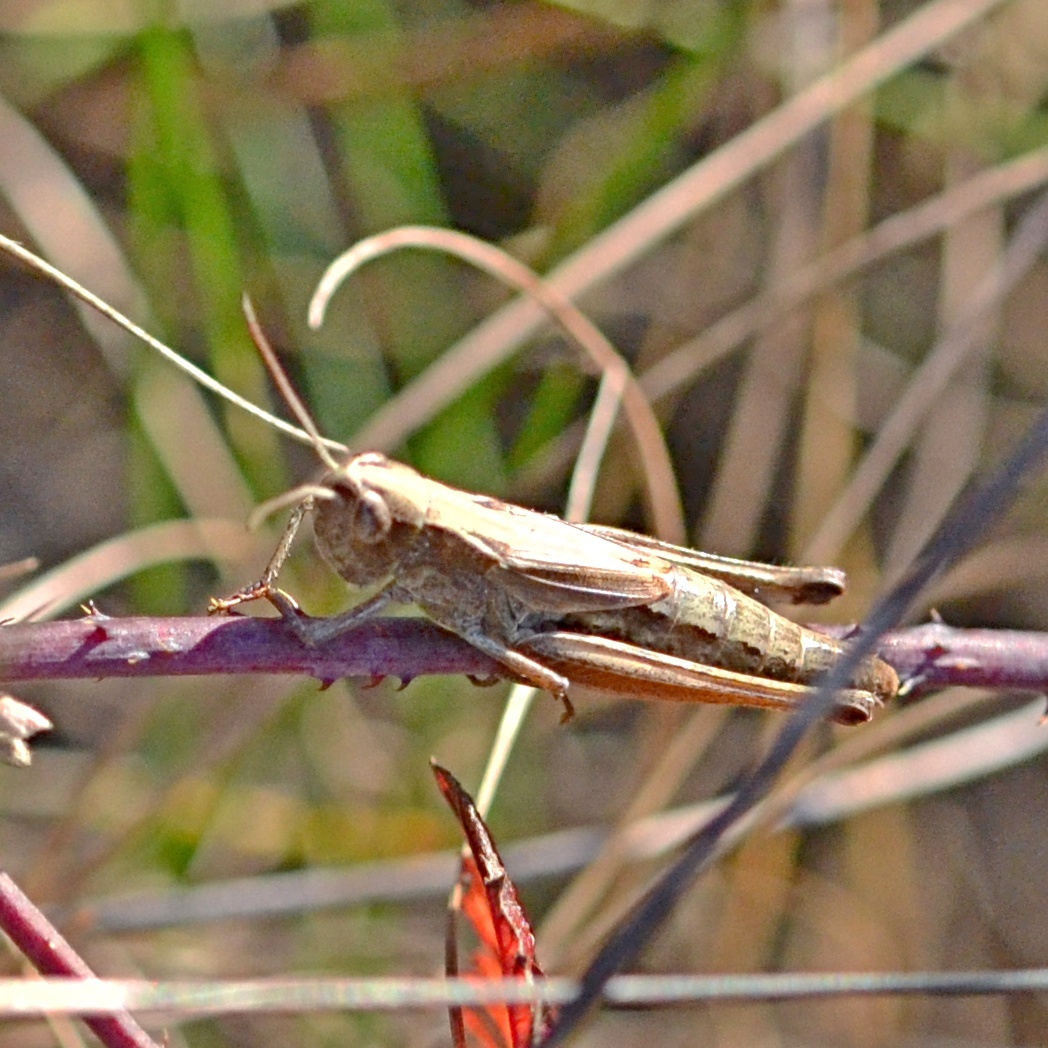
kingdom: Animalia
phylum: Arthropoda
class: Insecta
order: Orthoptera
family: Acrididae
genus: Pseudochorthippus
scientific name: Pseudochorthippus parallelus
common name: Meadow grasshopper
